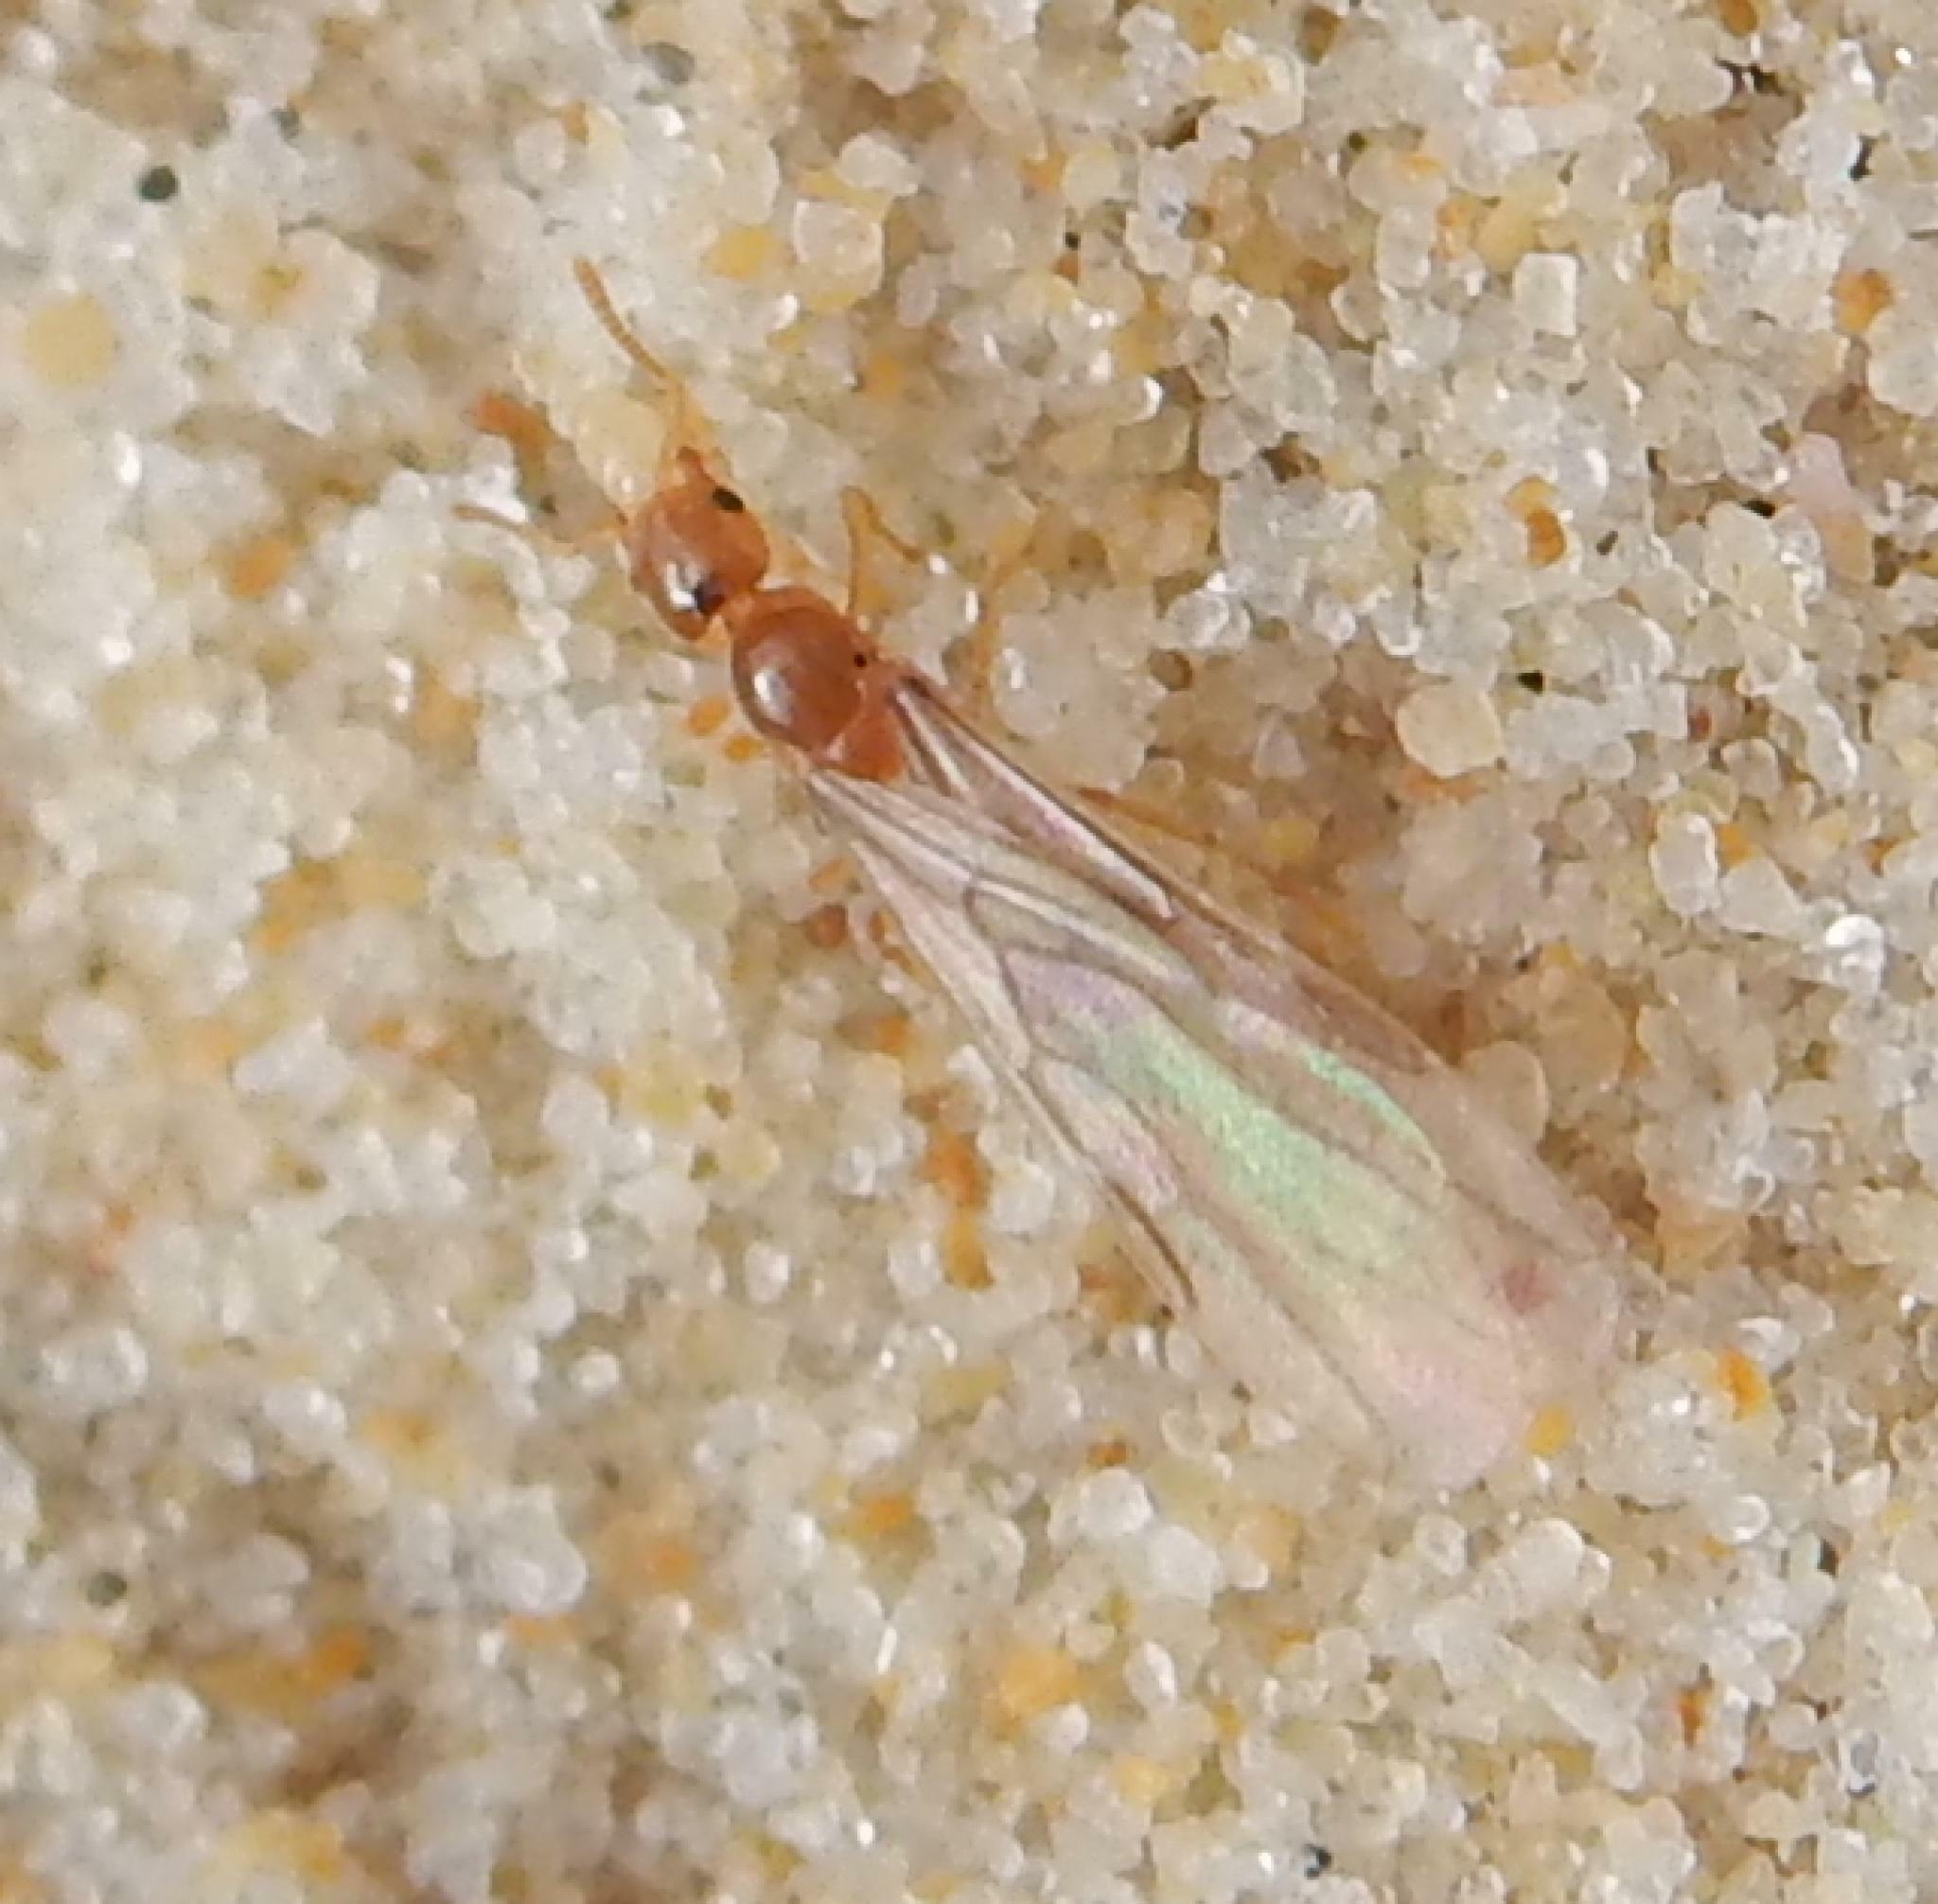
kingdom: Animalia
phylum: Arthropoda
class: Insecta
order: Hymenoptera
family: Formicidae
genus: Acropyga
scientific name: Acropyga arnoldi
